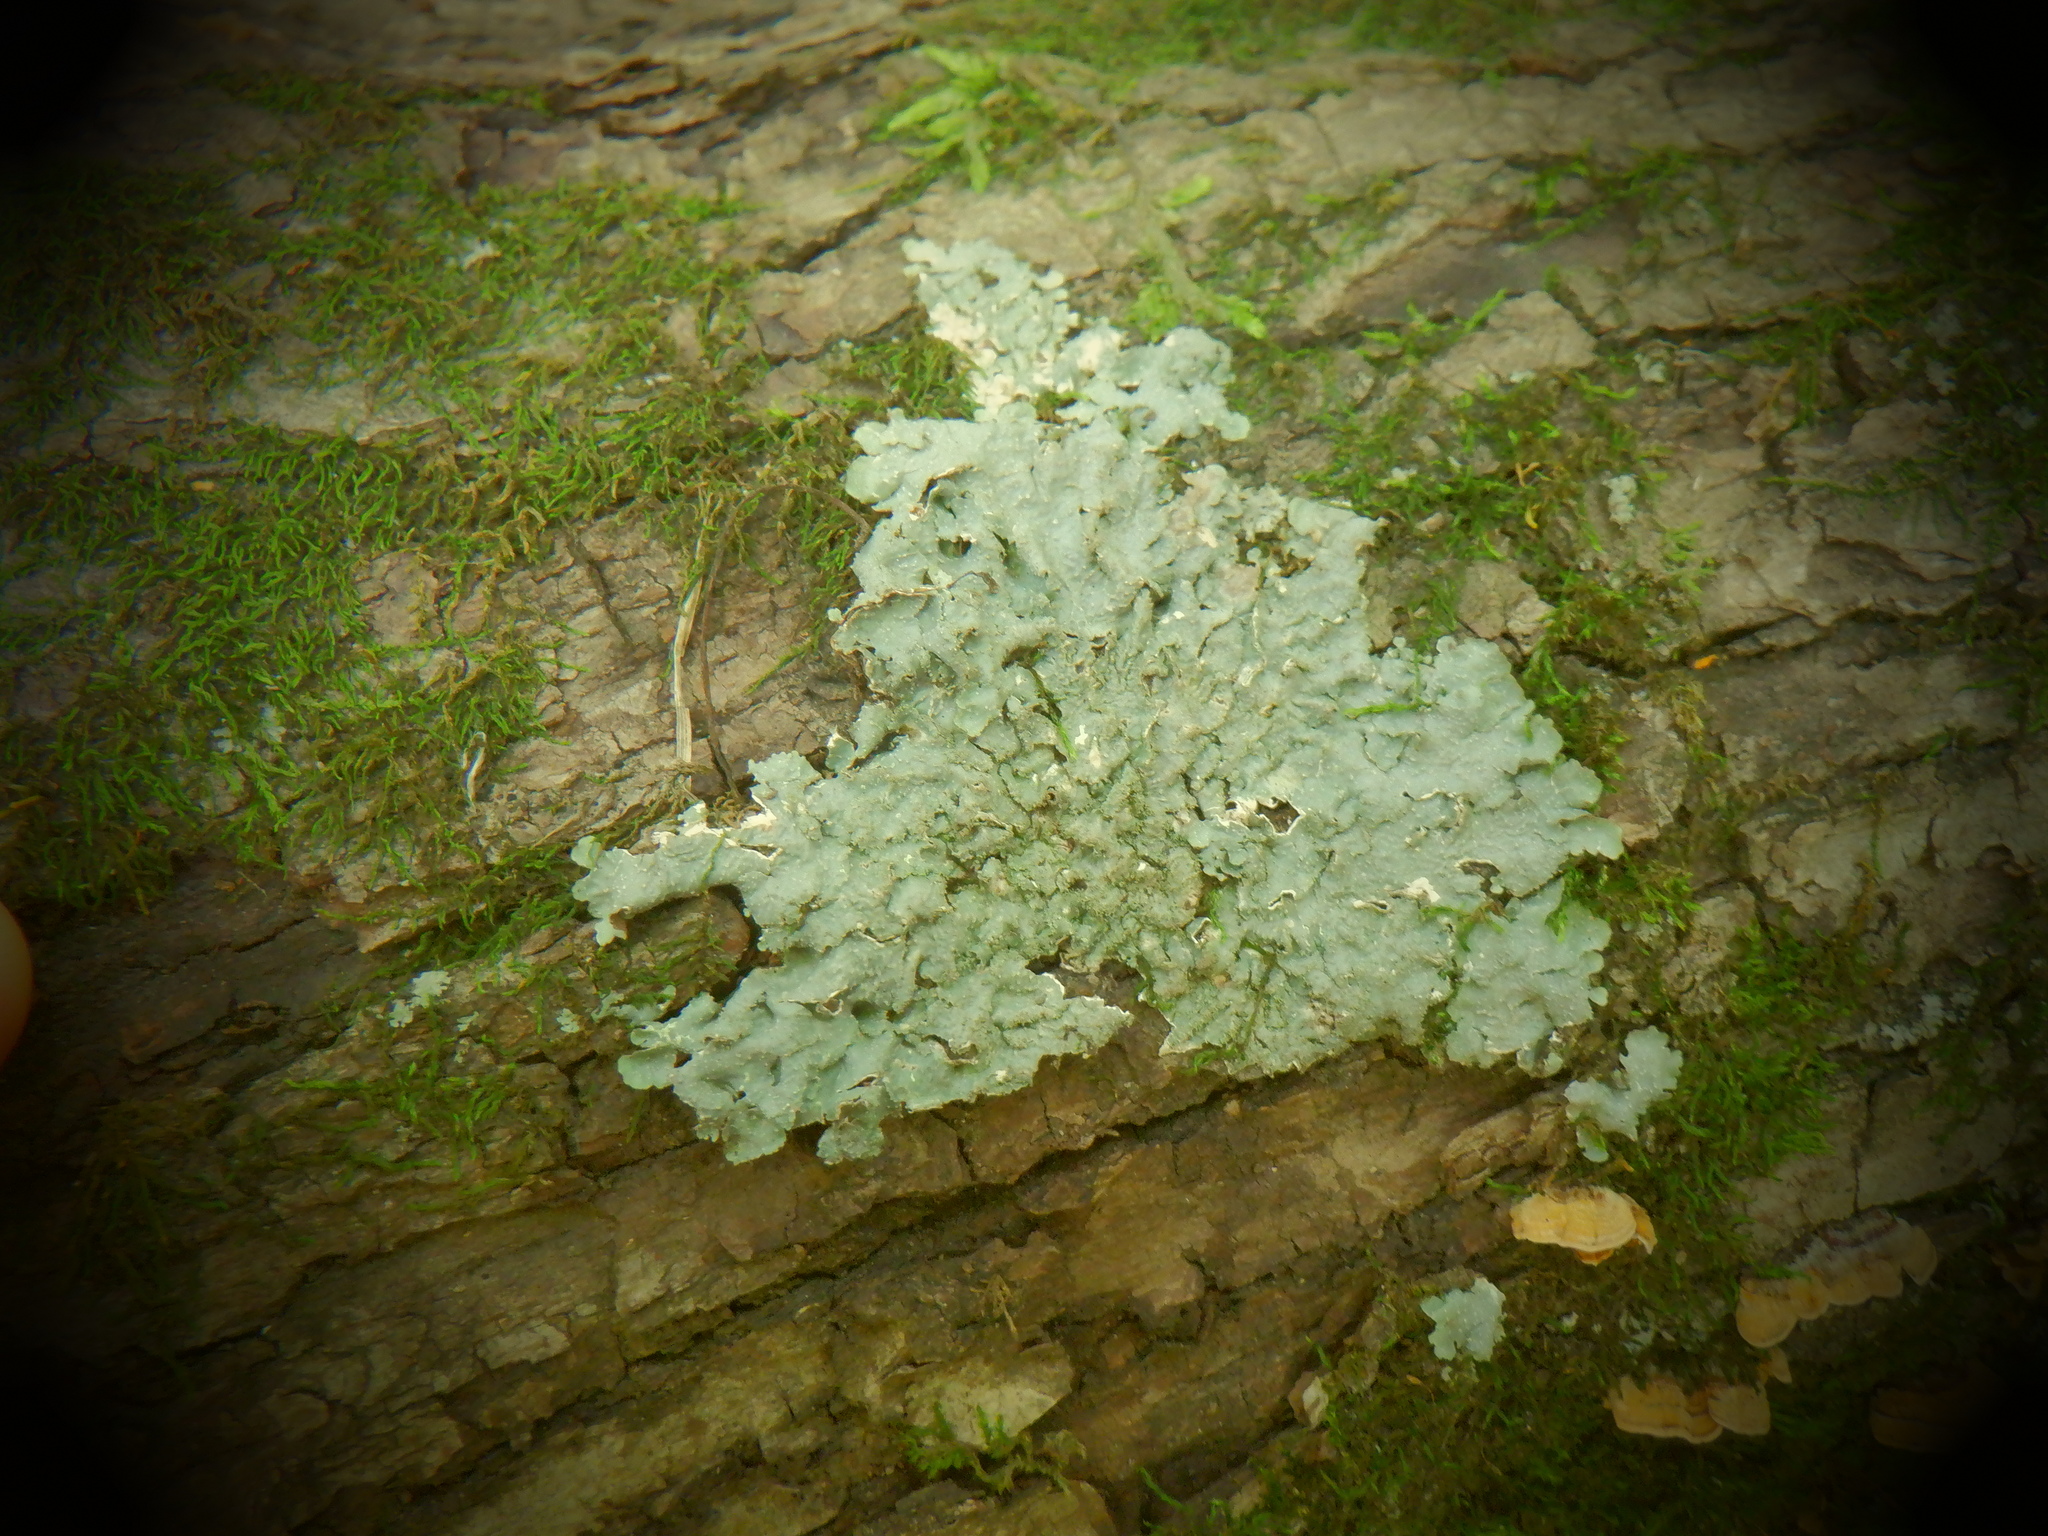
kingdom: Fungi
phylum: Ascomycota
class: Lecanoromycetes
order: Lecanorales
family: Parmeliaceae
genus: Punctelia
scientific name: Punctelia rudecta
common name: Rough speckled shield lichen
